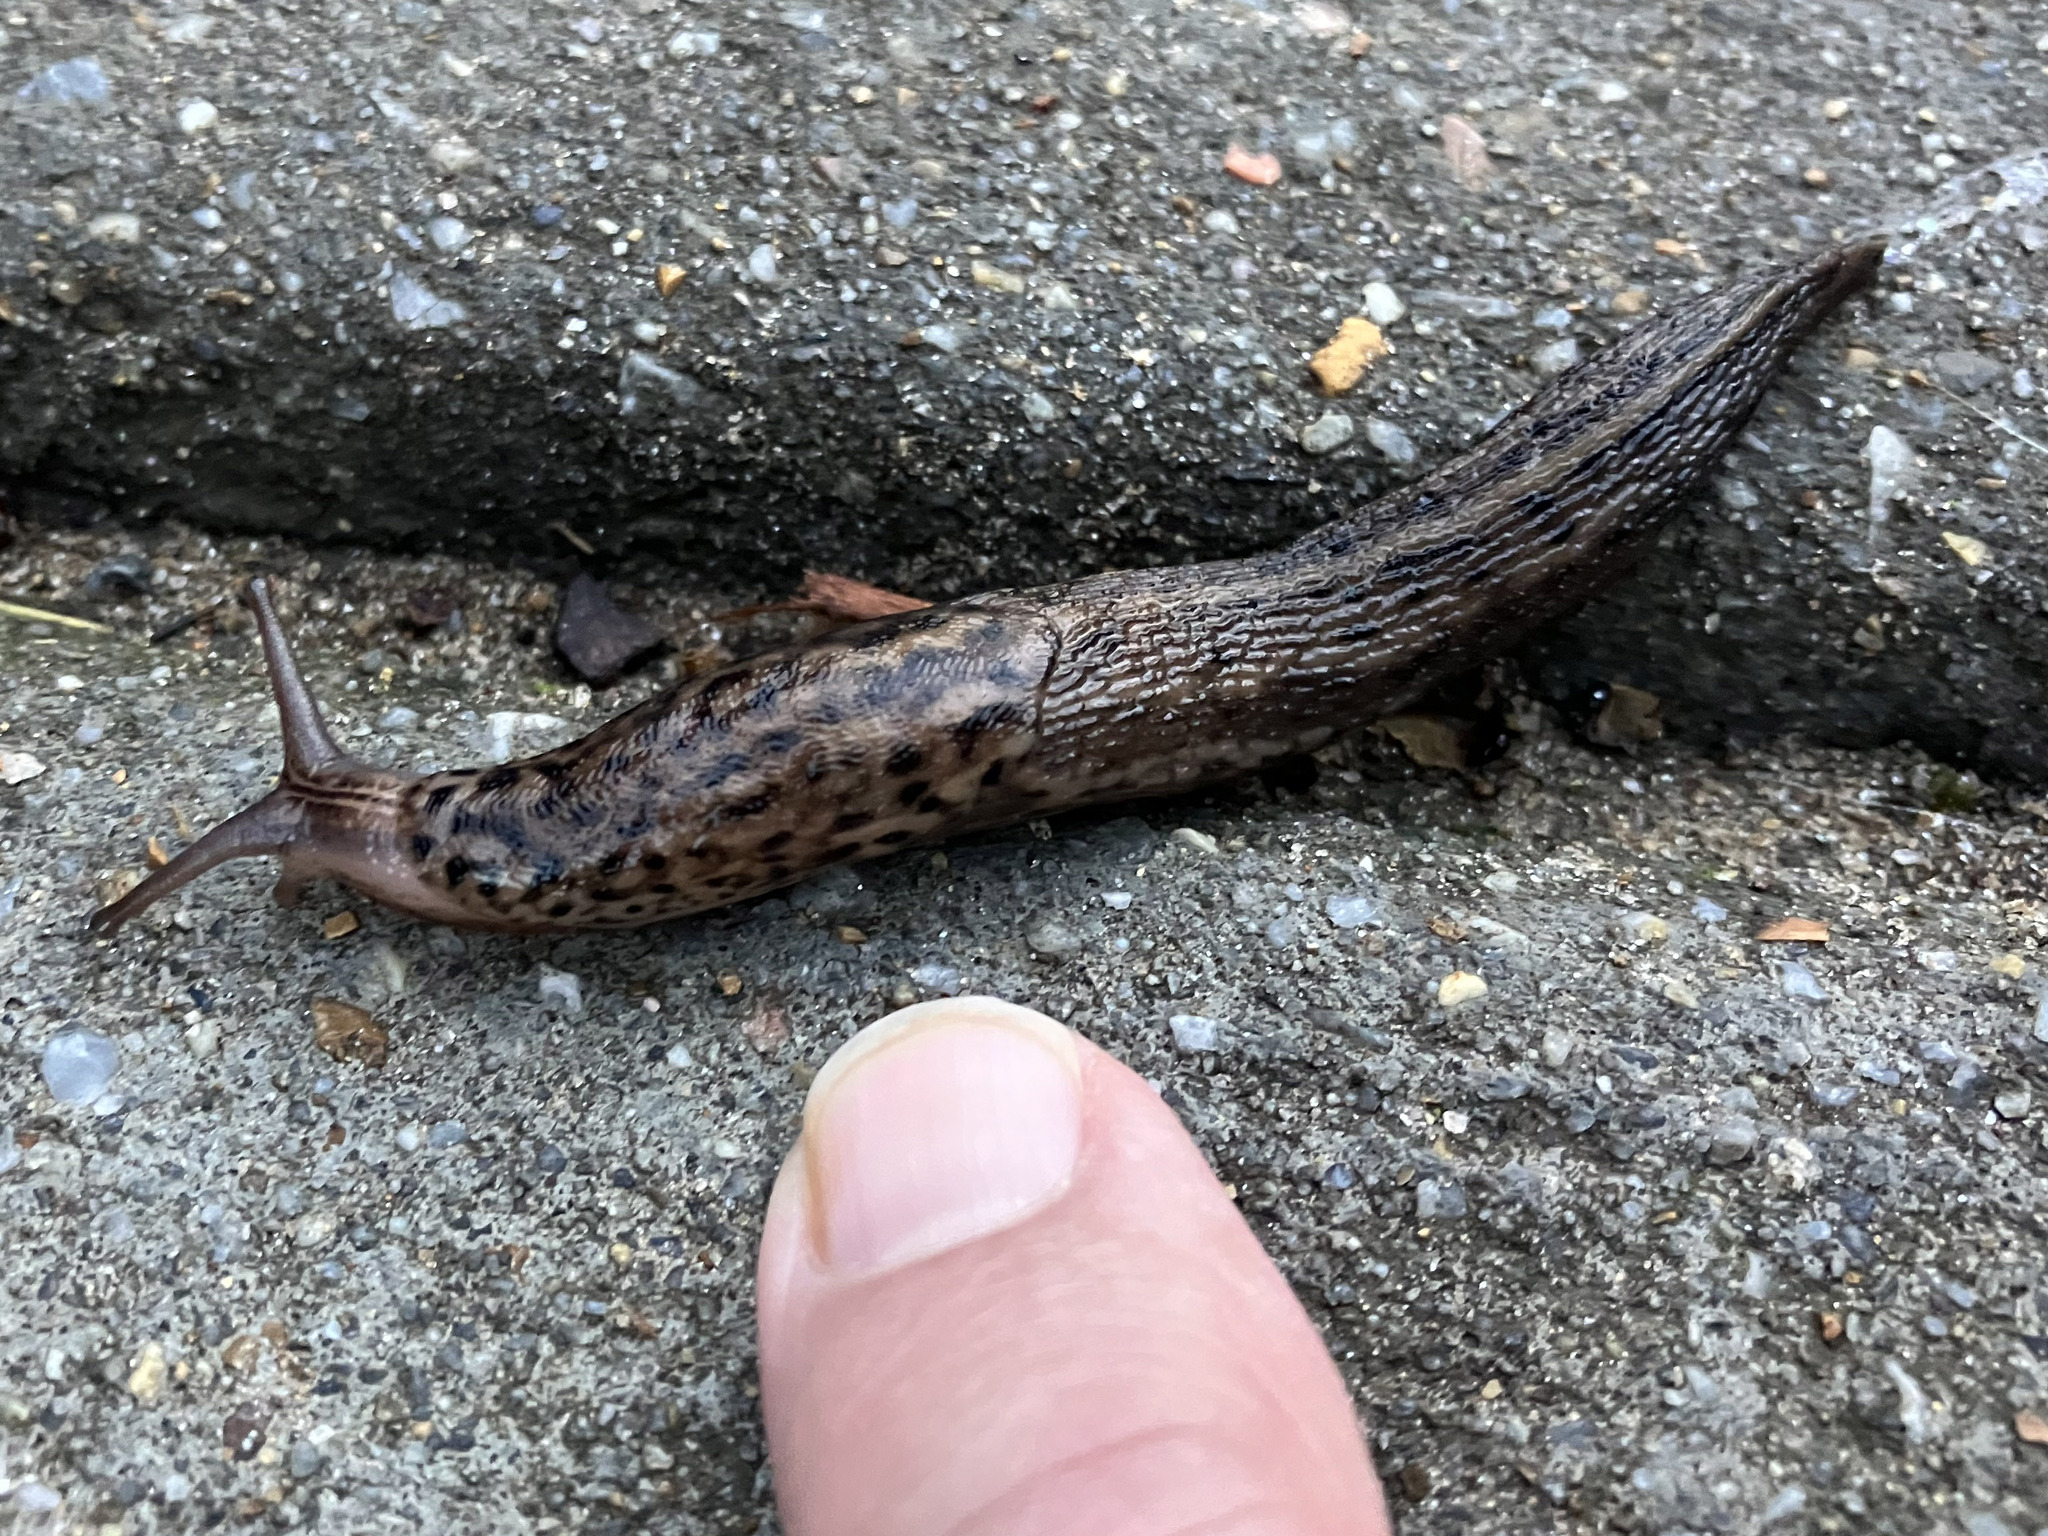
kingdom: Animalia
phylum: Mollusca
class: Gastropoda
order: Stylommatophora
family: Limacidae
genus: Limax
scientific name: Limax maximus
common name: Great grey slug
